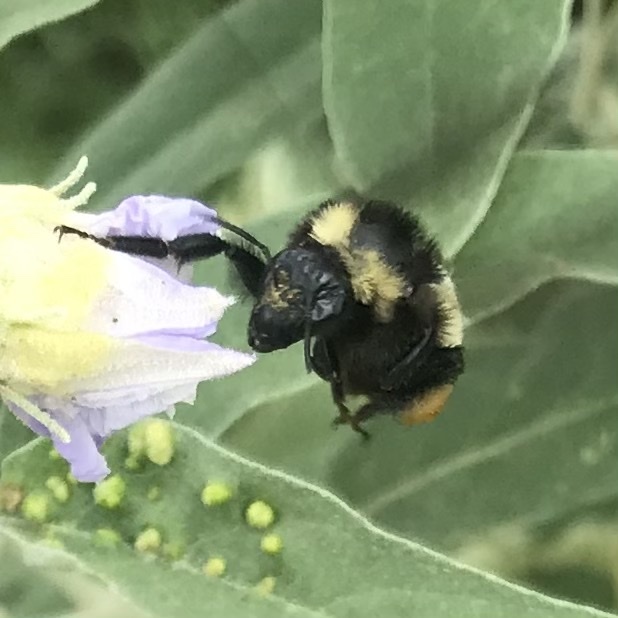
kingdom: Animalia
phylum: Arthropoda
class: Insecta
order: Hymenoptera
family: Apidae
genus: Bombus
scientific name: Bombus pensylvanicus
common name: Bumble bee
